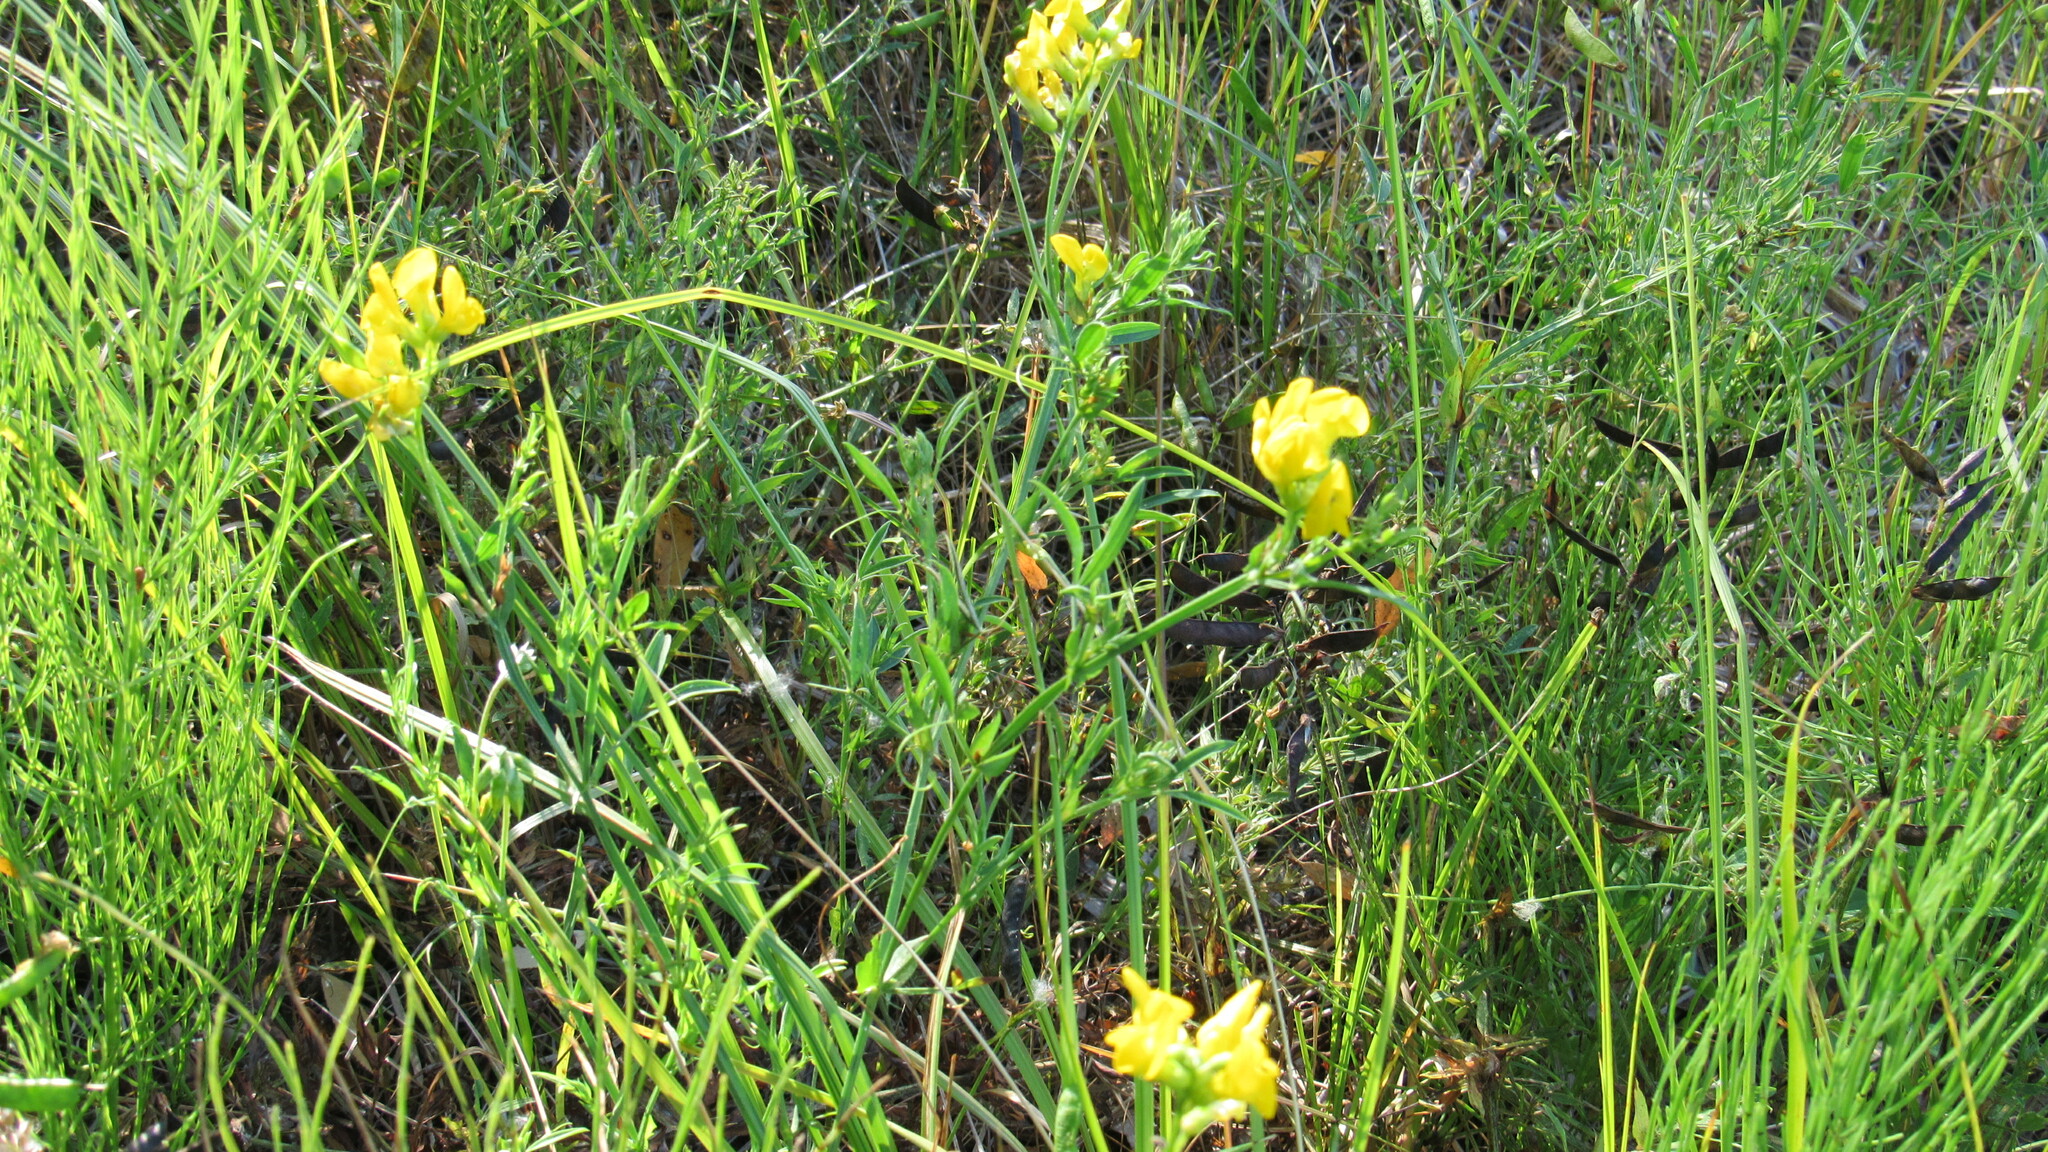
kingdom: Plantae
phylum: Tracheophyta
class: Magnoliopsida
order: Fabales
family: Fabaceae
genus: Lathyrus
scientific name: Lathyrus pratensis
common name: Meadow vetchling
